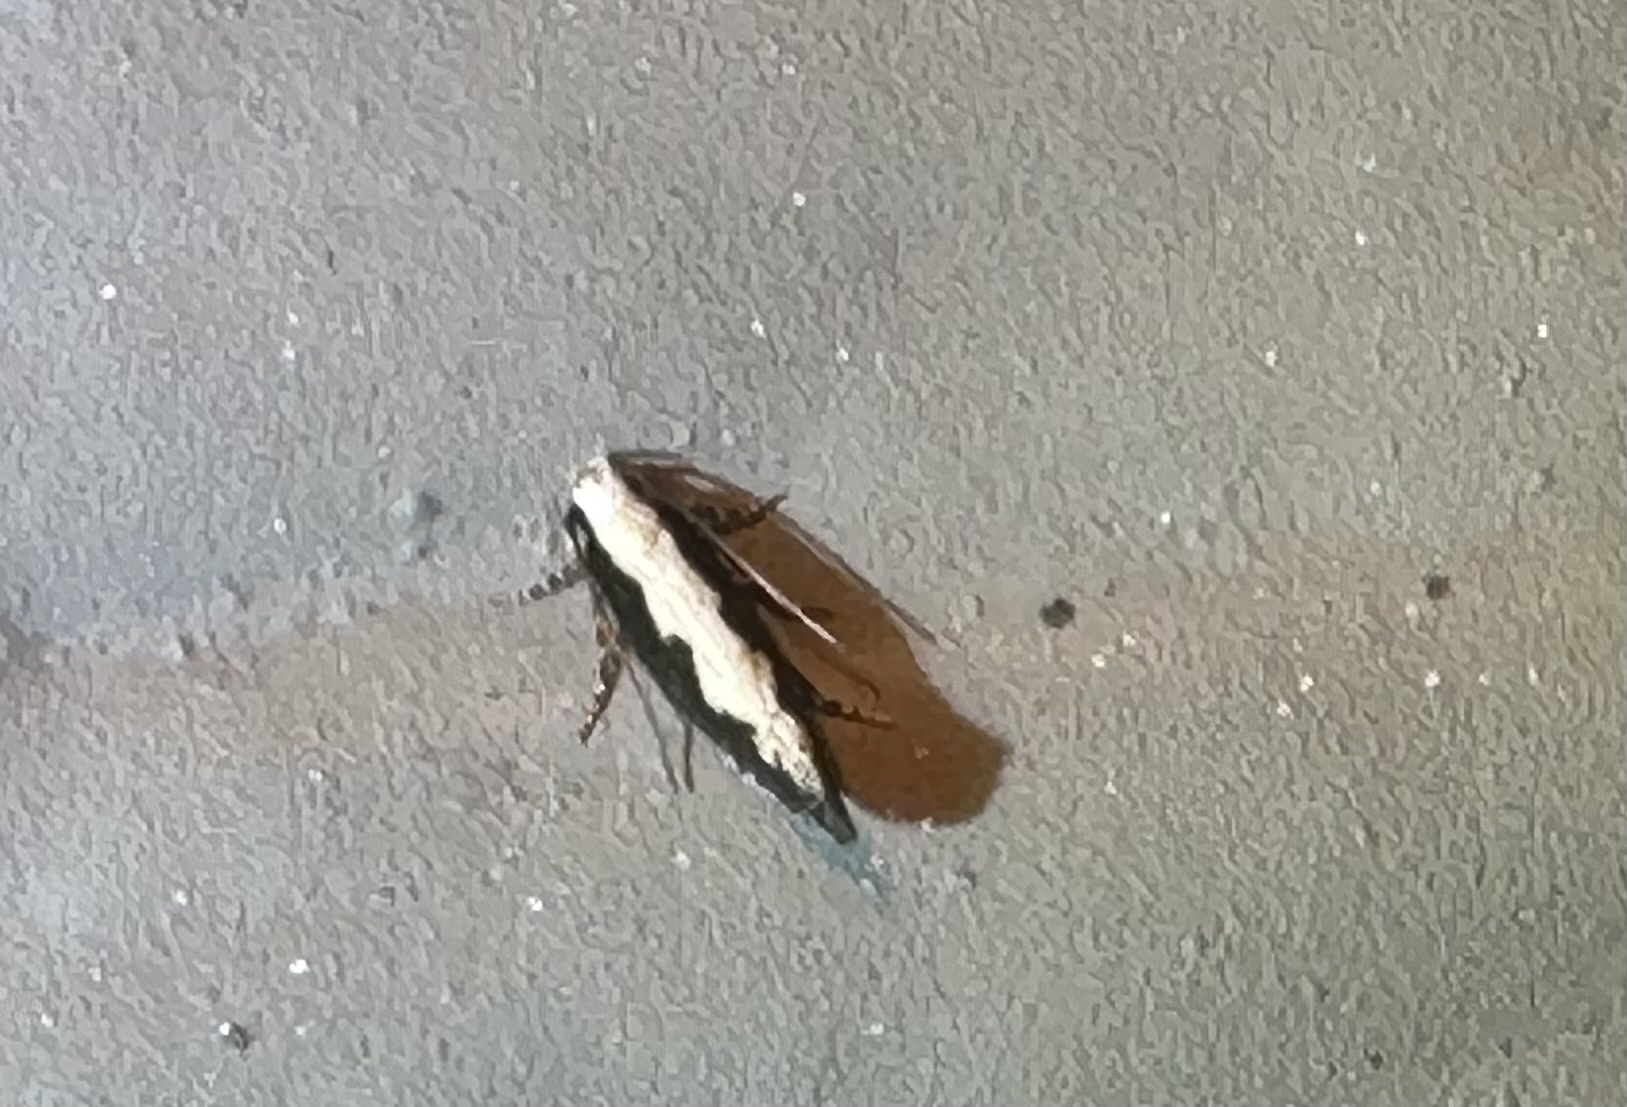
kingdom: Animalia
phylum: Arthropoda
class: Insecta
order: Lepidoptera
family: Gelechiidae
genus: Agnippe
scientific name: Agnippe prunifoliella
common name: Skunk twirler
